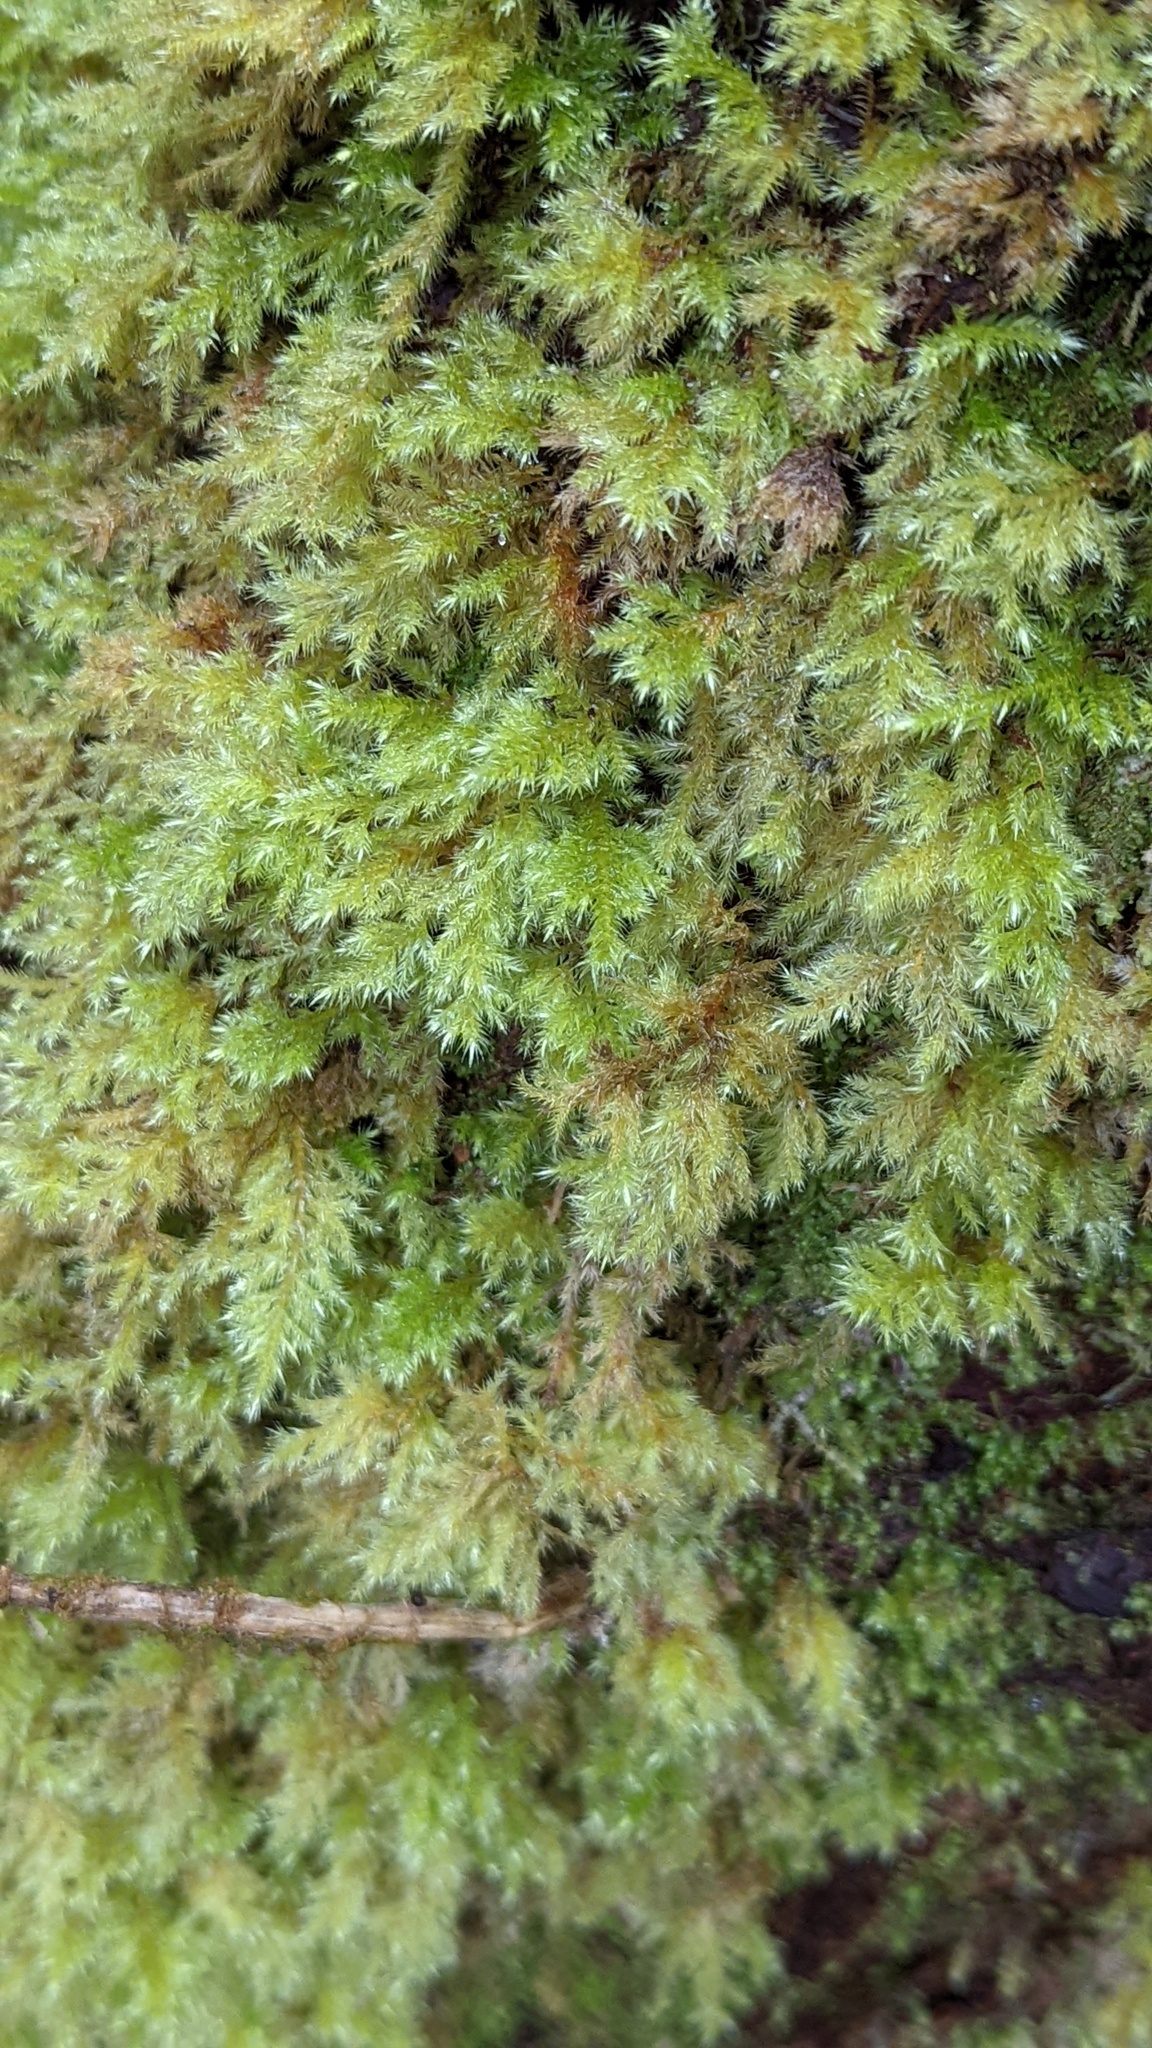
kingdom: Plantae
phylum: Bryophyta
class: Bryopsida
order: Hypnales
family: Lembophyllaceae
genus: Pseudisothecium
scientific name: Pseudisothecium stoloniferum
